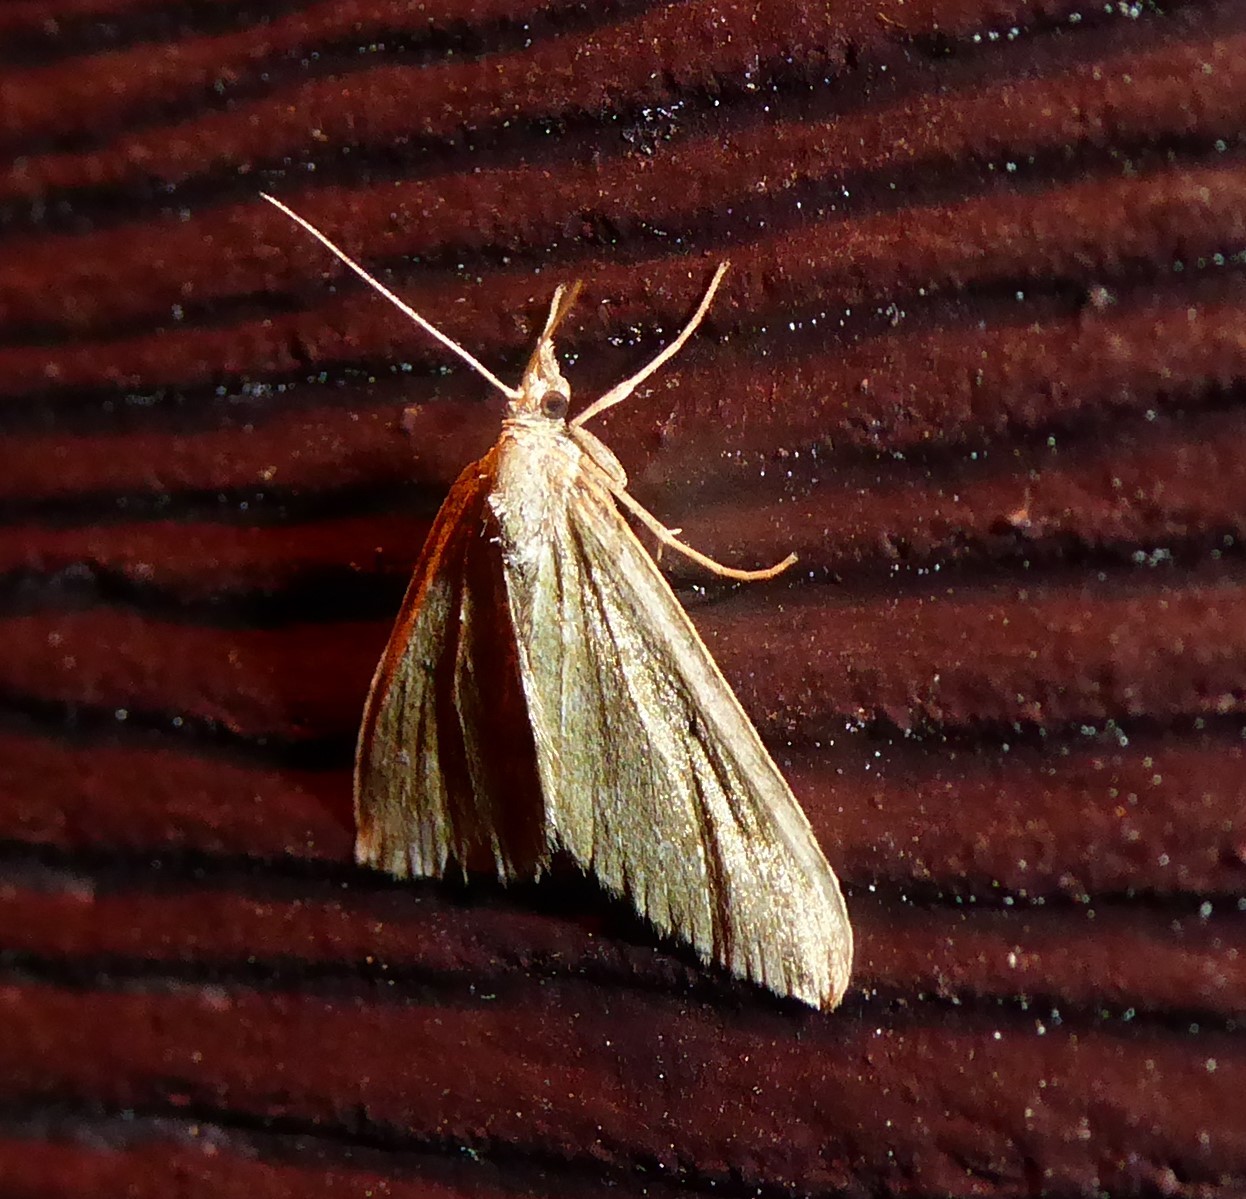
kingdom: Animalia
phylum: Arthropoda
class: Insecta
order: Lepidoptera
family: Geometridae
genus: Epyaxa
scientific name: Epyaxa rosearia
